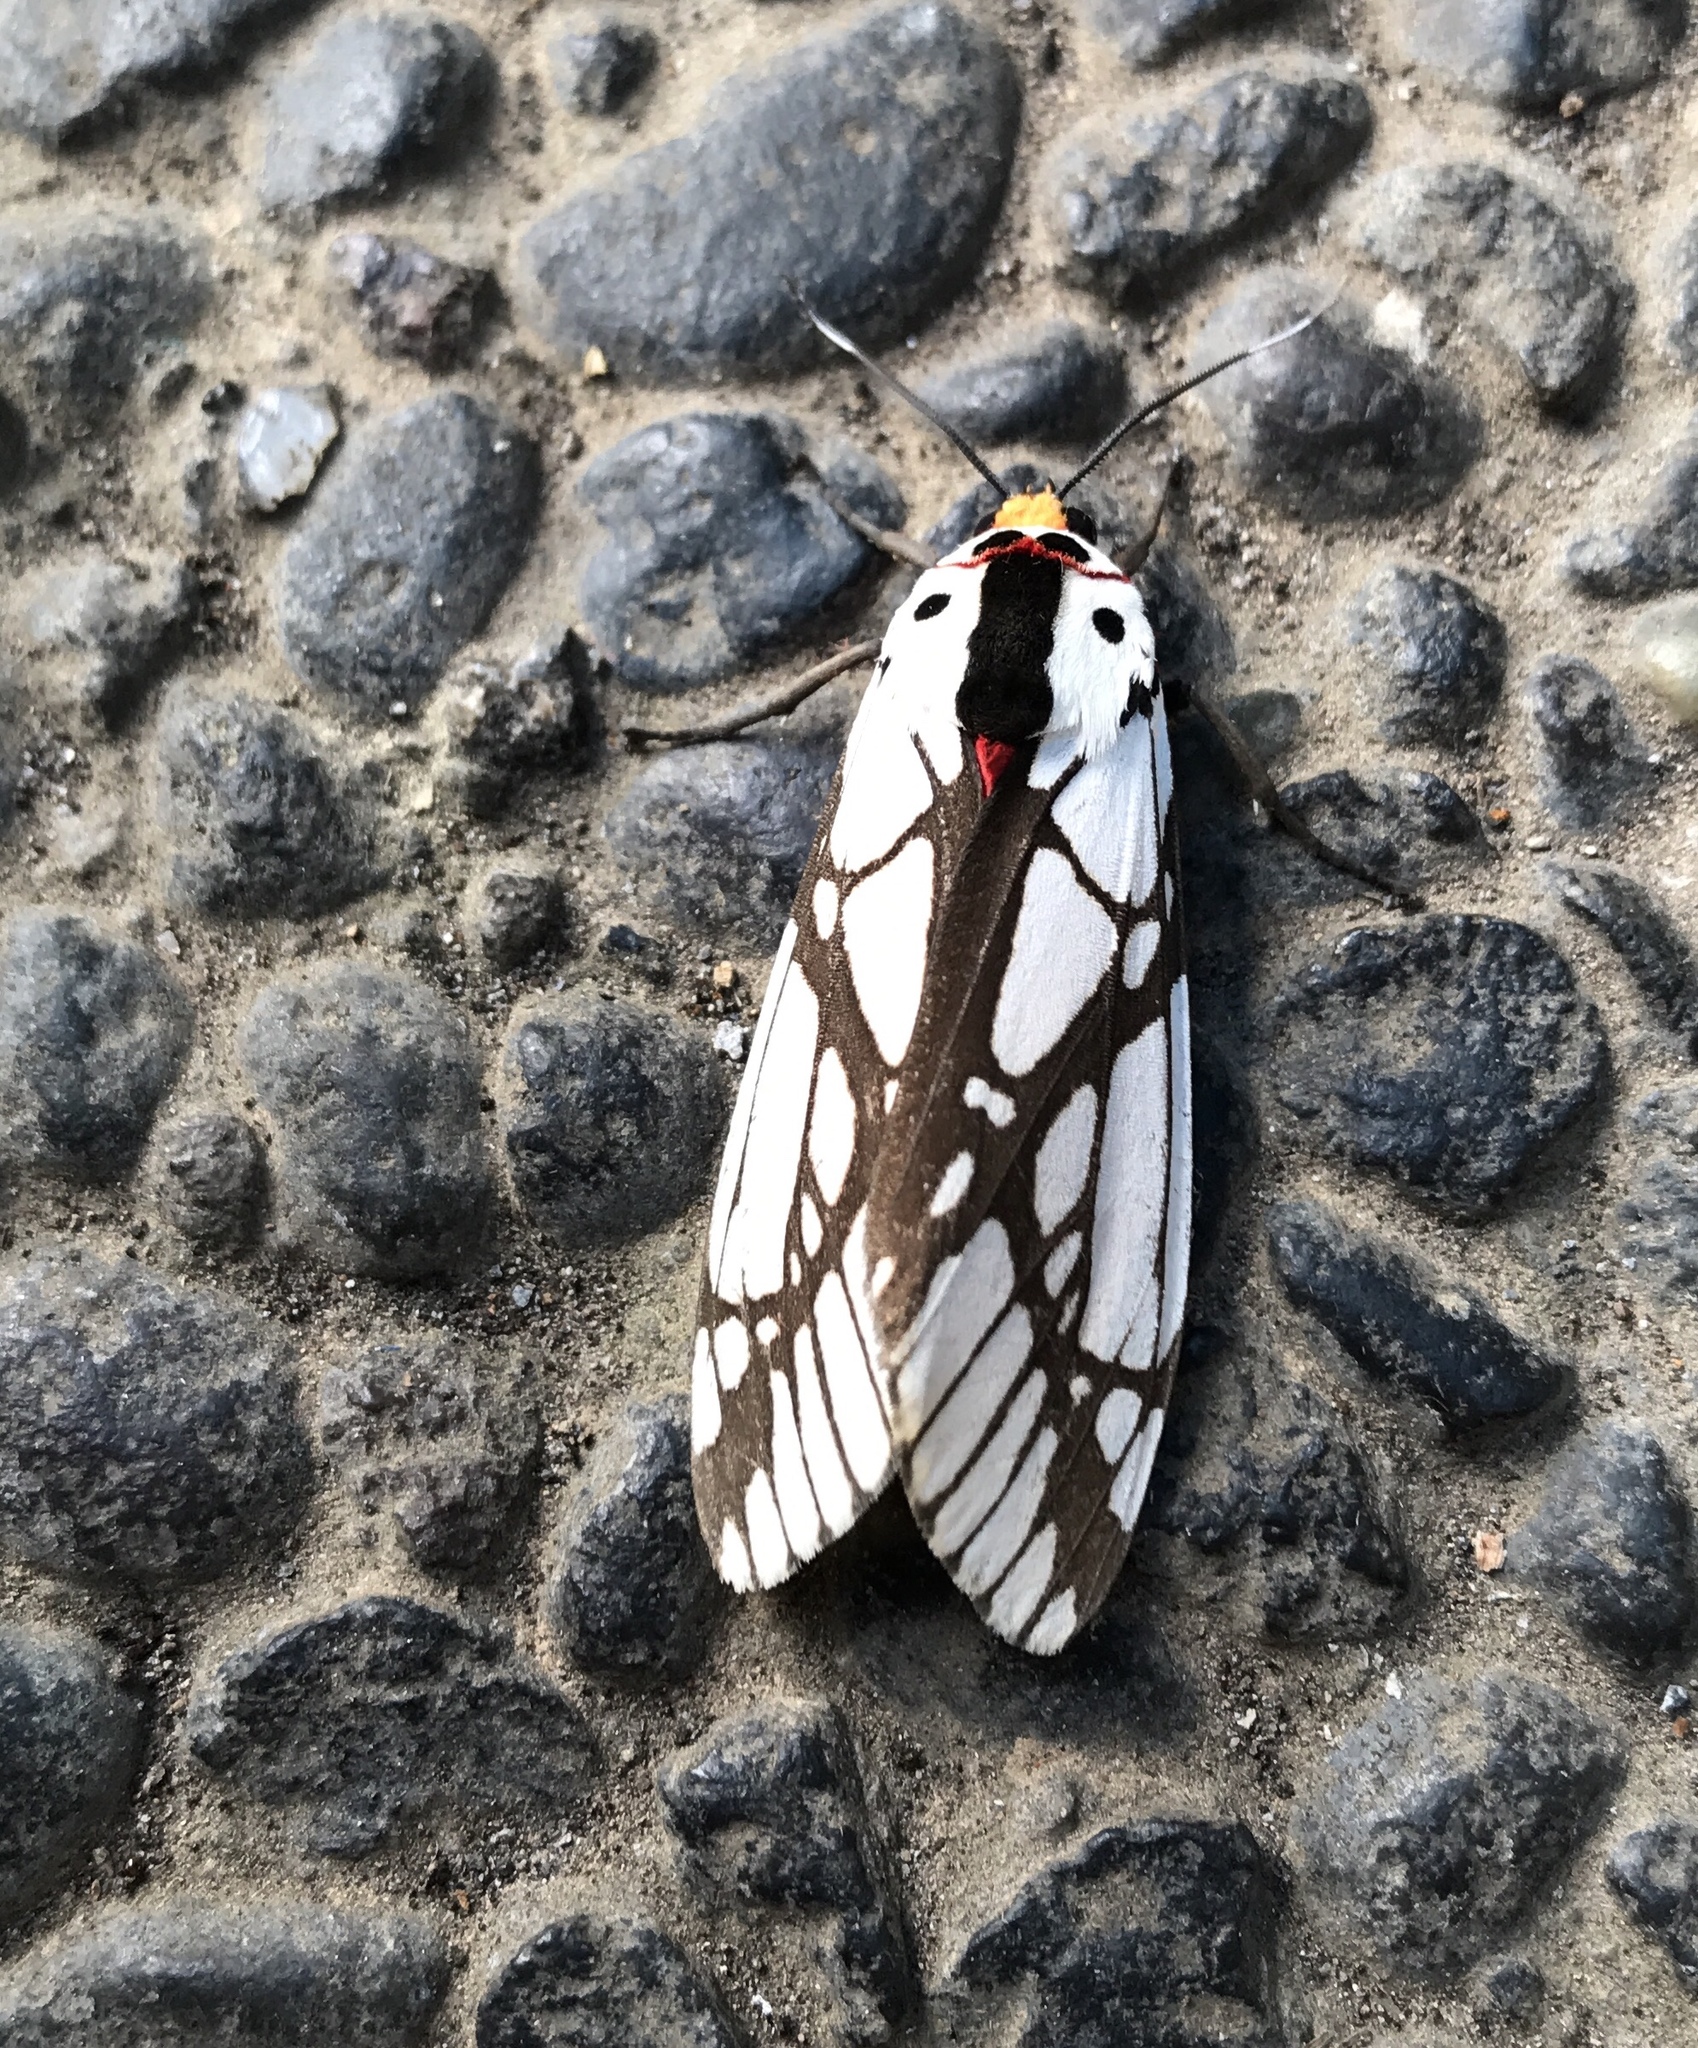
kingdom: Animalia
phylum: Arthropoda
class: Insecta
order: Lepidoptera
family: Erebidae
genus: Areas
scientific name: Areas galactina
